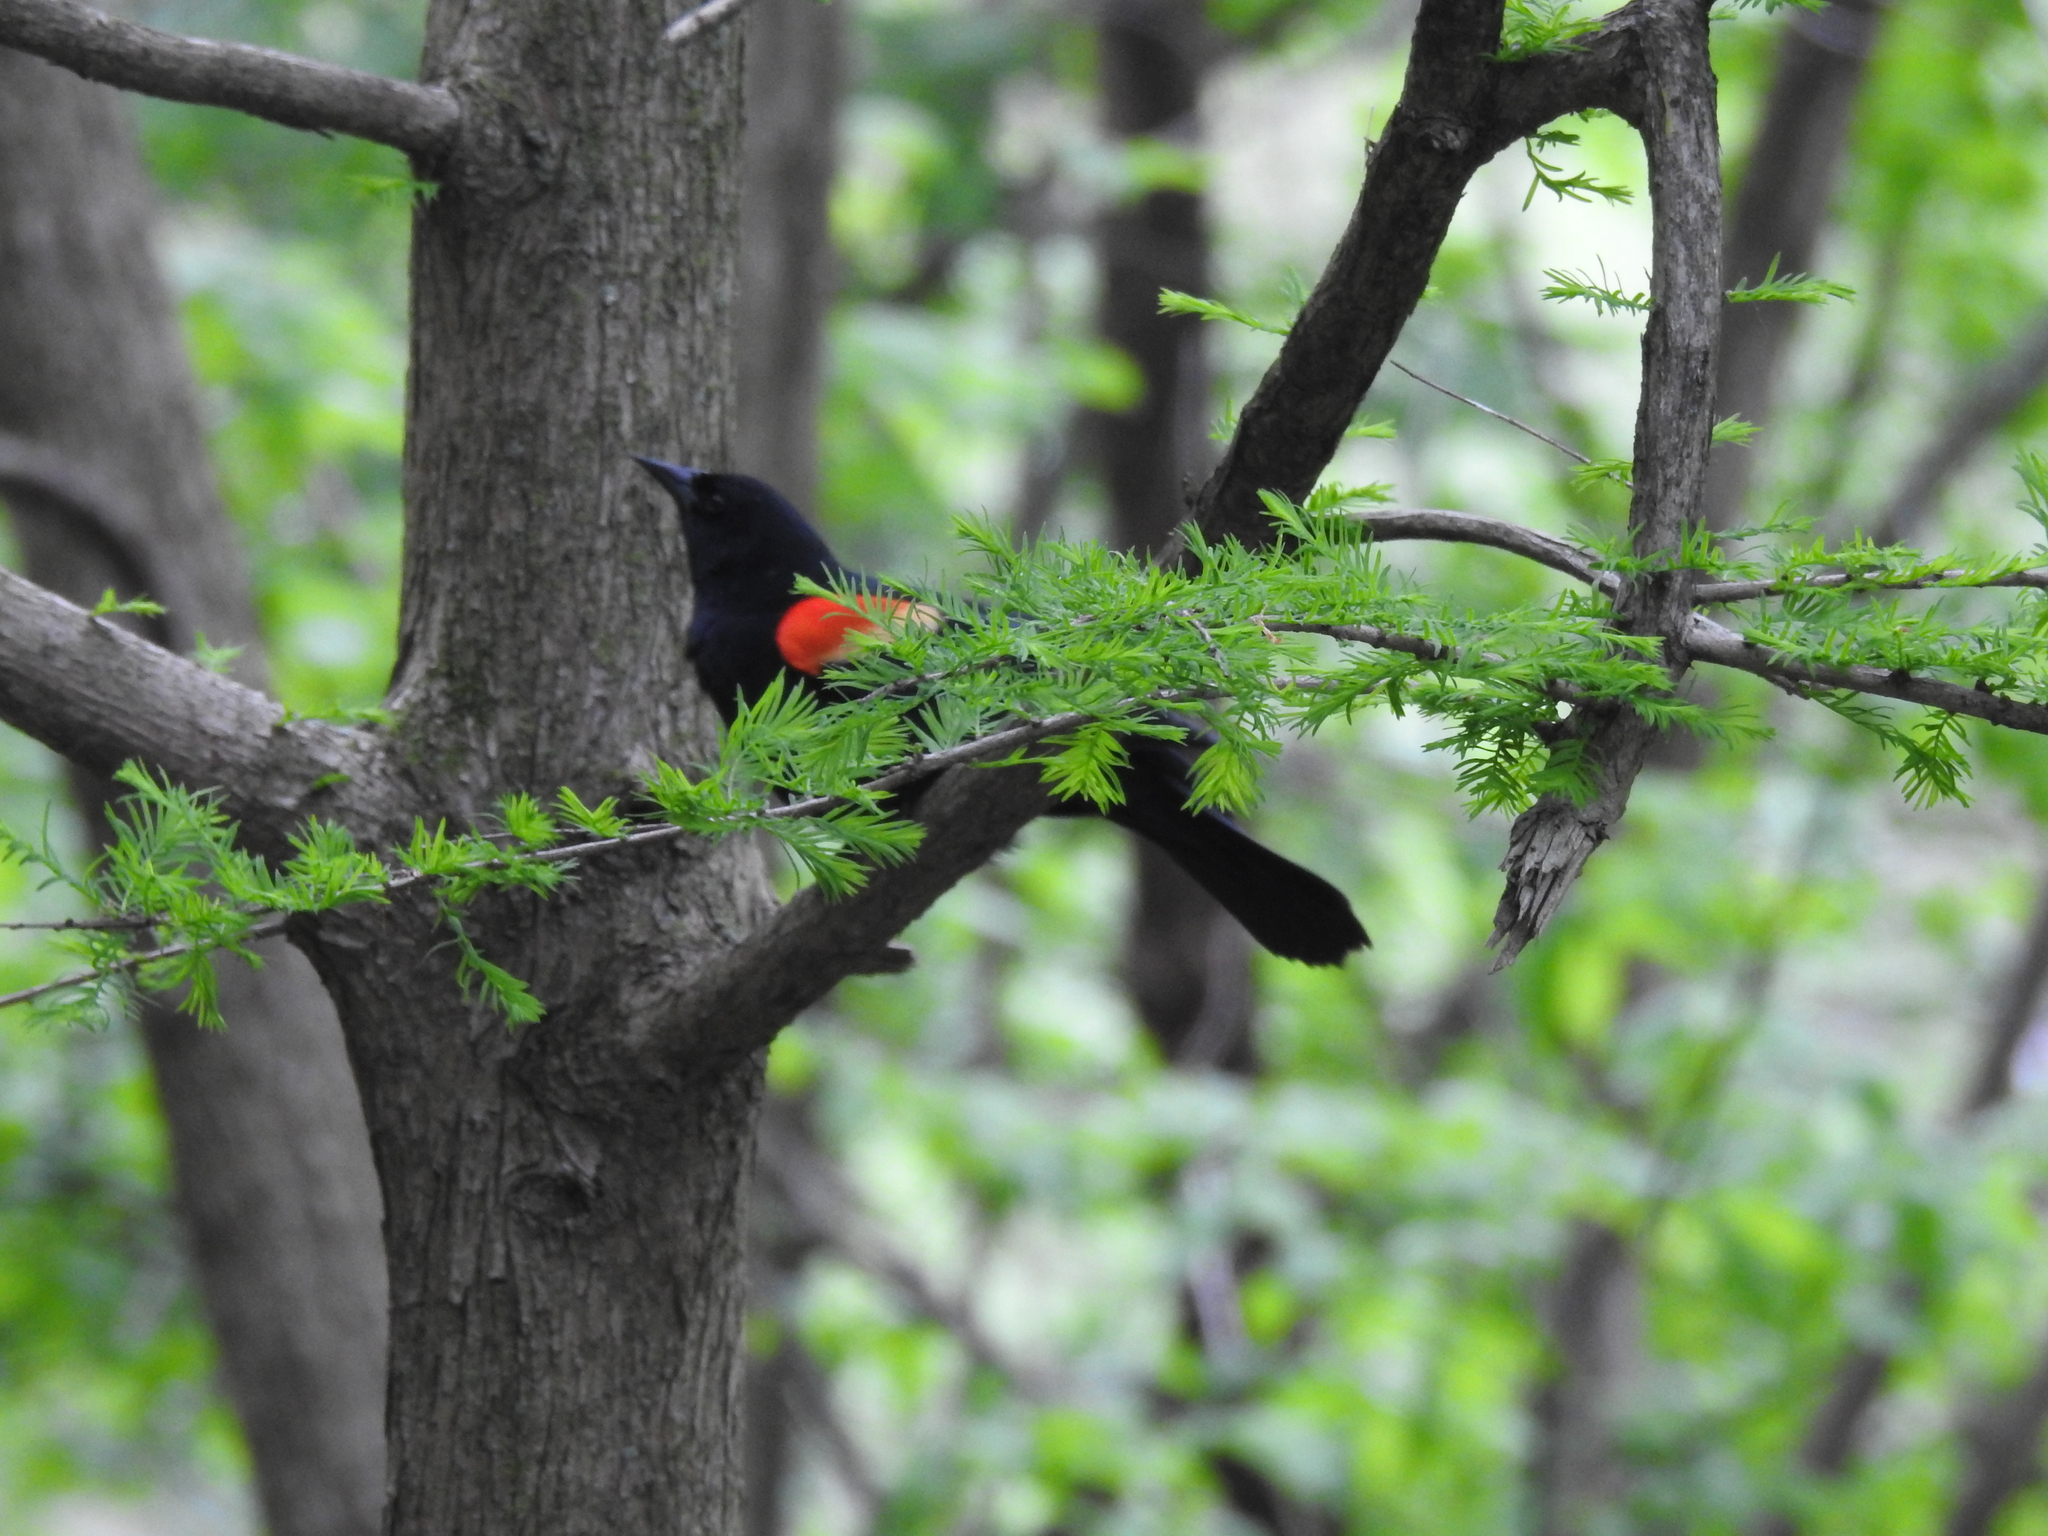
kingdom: Animalia
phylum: Chordata
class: Aves
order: Passeriformes
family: Icteridae
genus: Agelaius
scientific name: Agelaius phoeniceus
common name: Red-winged blackbird
